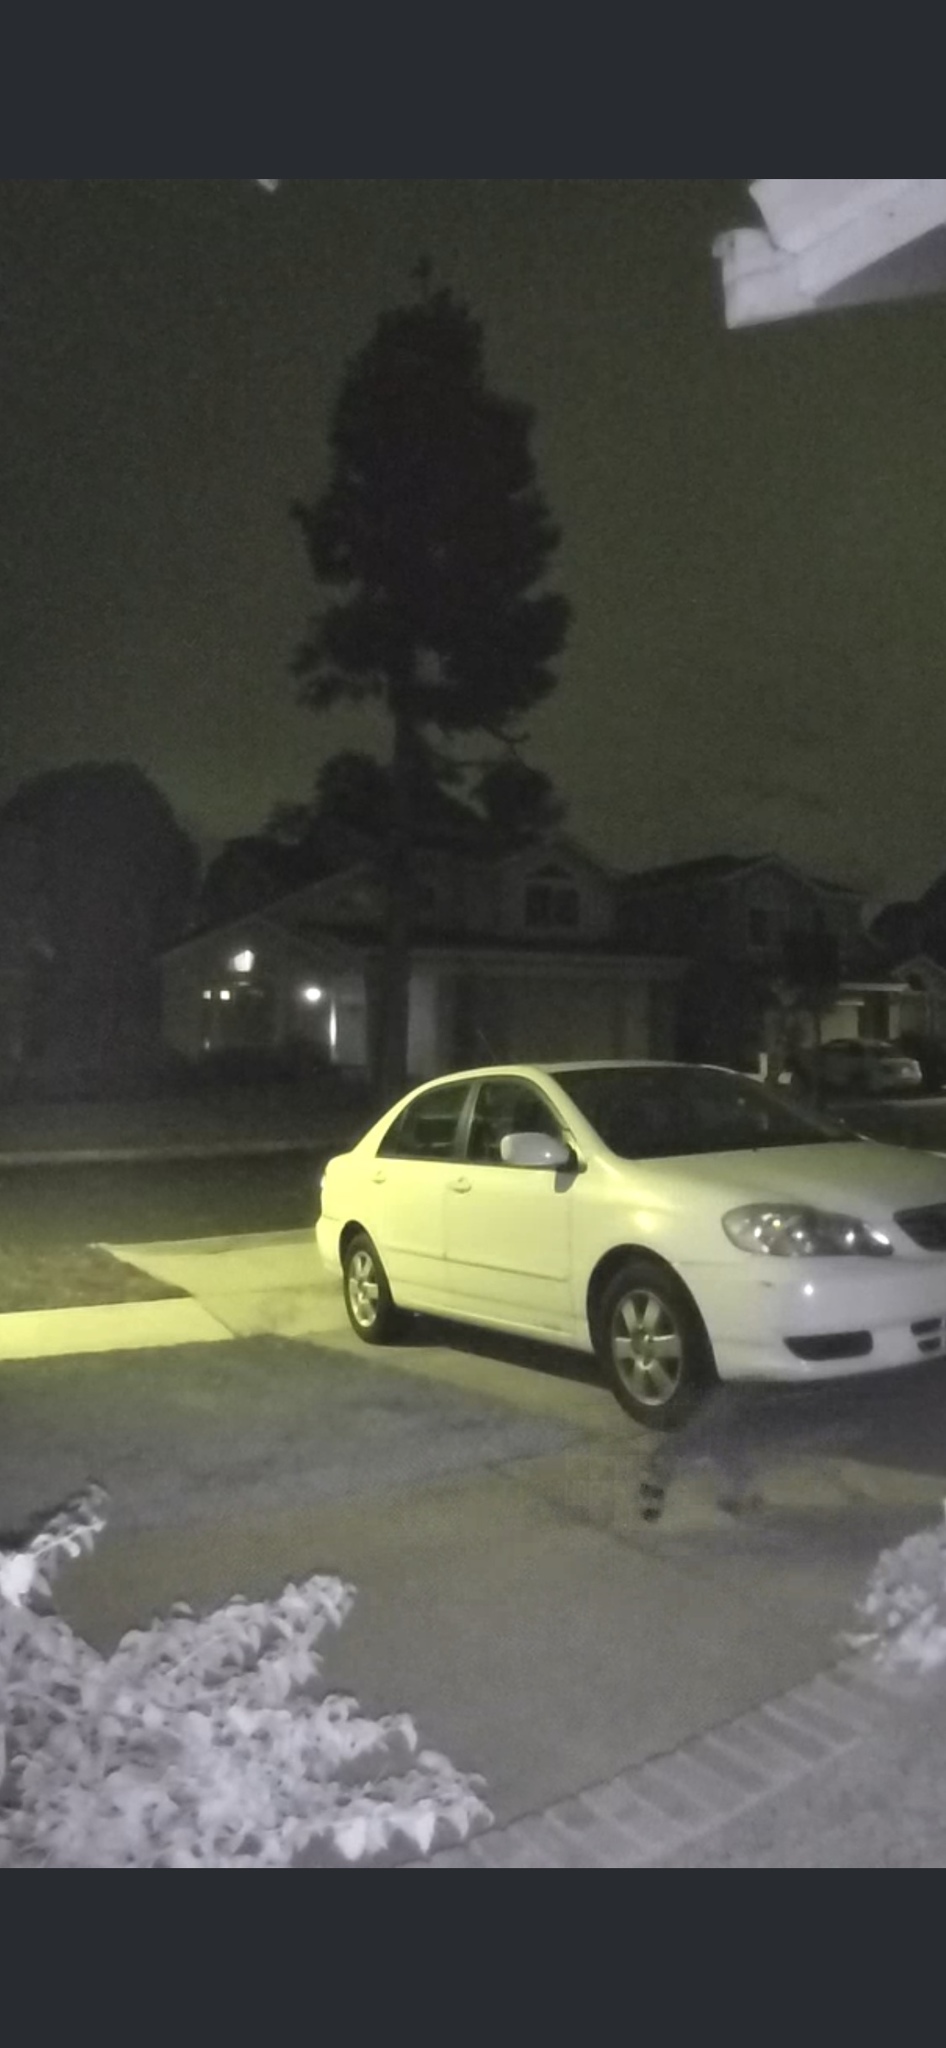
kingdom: Animalia
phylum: Chordata
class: Mammalia
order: Carnivora
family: Procyonidae
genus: Procyon
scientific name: Procyon lotor
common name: Raccoon
